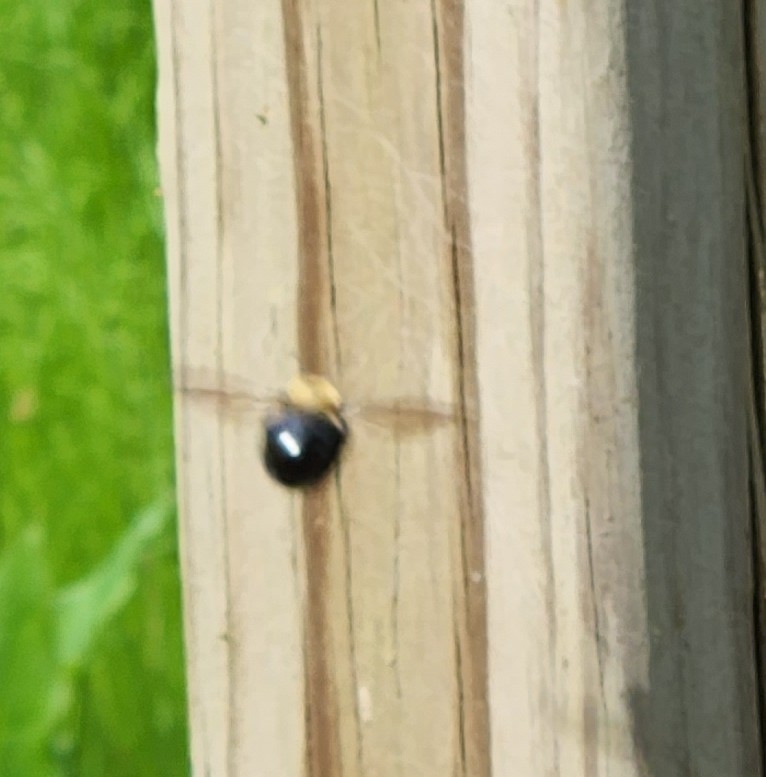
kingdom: Animalia
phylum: Arthropoda
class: Insecta
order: Hymenoptera
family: Apidae
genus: Xylocopa
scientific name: Xylocopa virginica
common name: Carpenter bee
